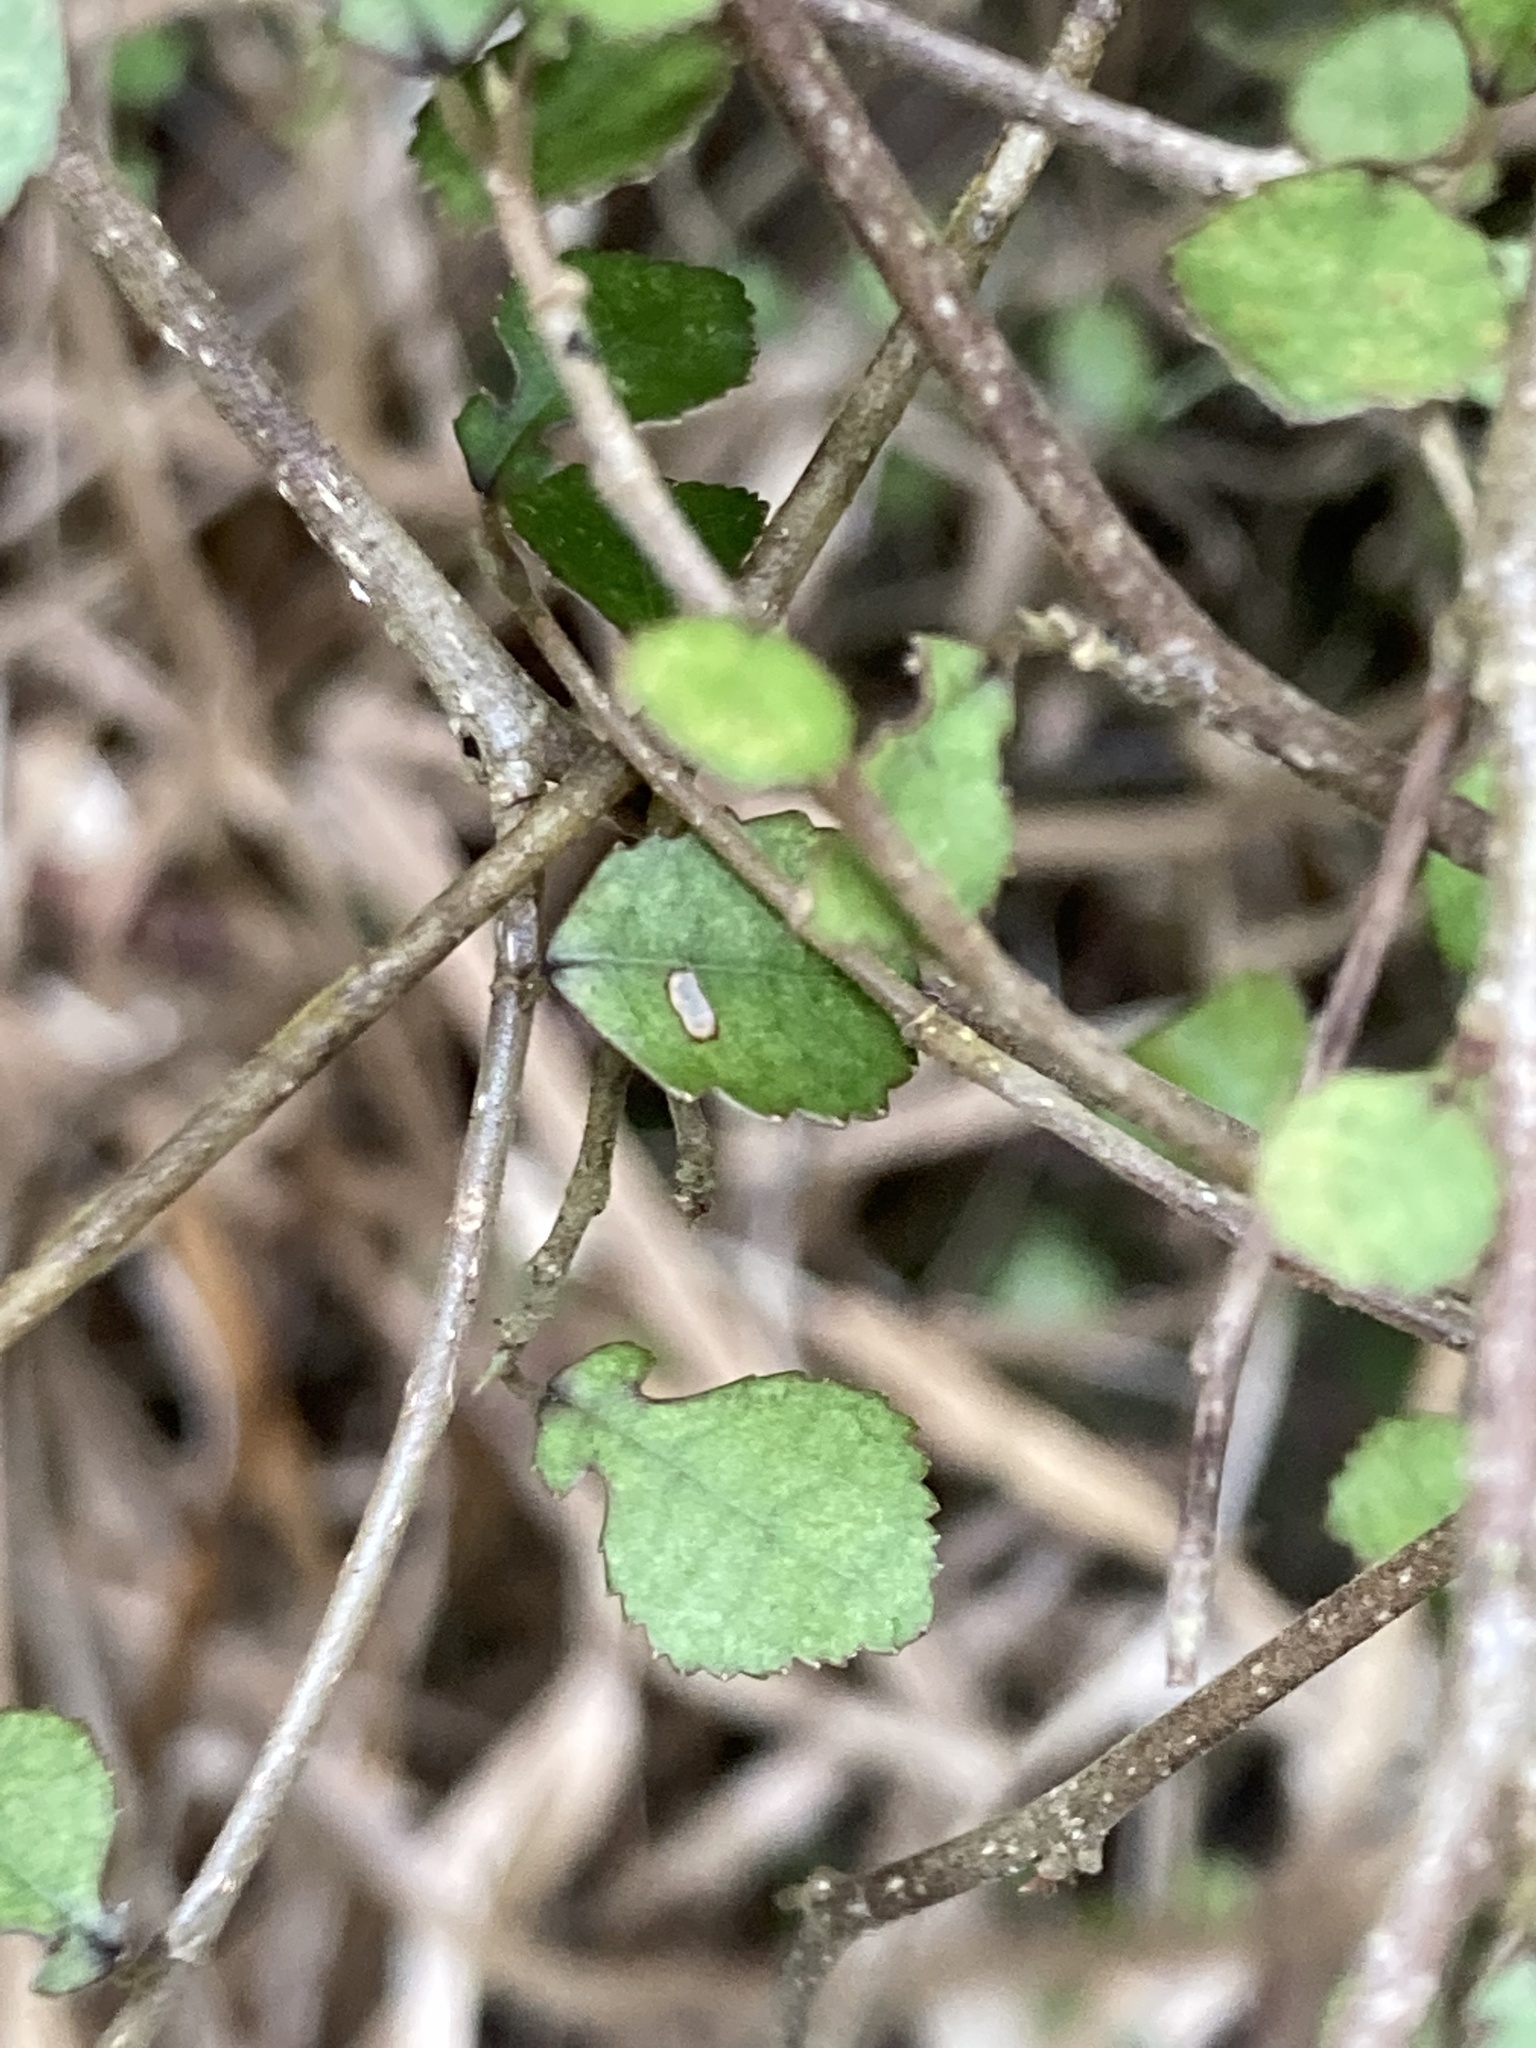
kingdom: Plantae
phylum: Tracheophyta
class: Magnoliopsida
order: Rosales
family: Moraceae
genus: Paratrophis
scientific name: Paratrophis microphylla
